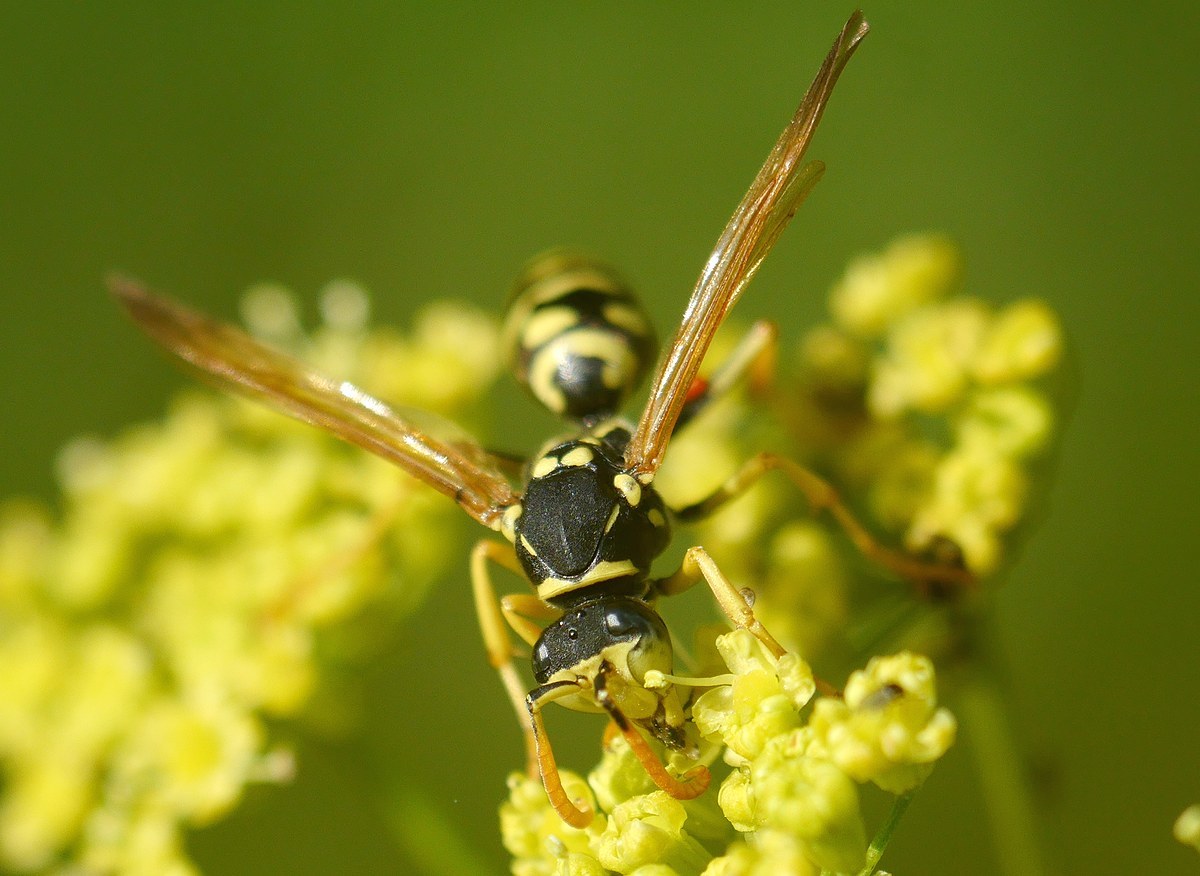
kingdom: Animalia
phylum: Arthropoda
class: Insecta
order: Hymenoptera
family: Eumenidae
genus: Polistes
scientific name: Polistes gallicus
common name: Paper wasp
